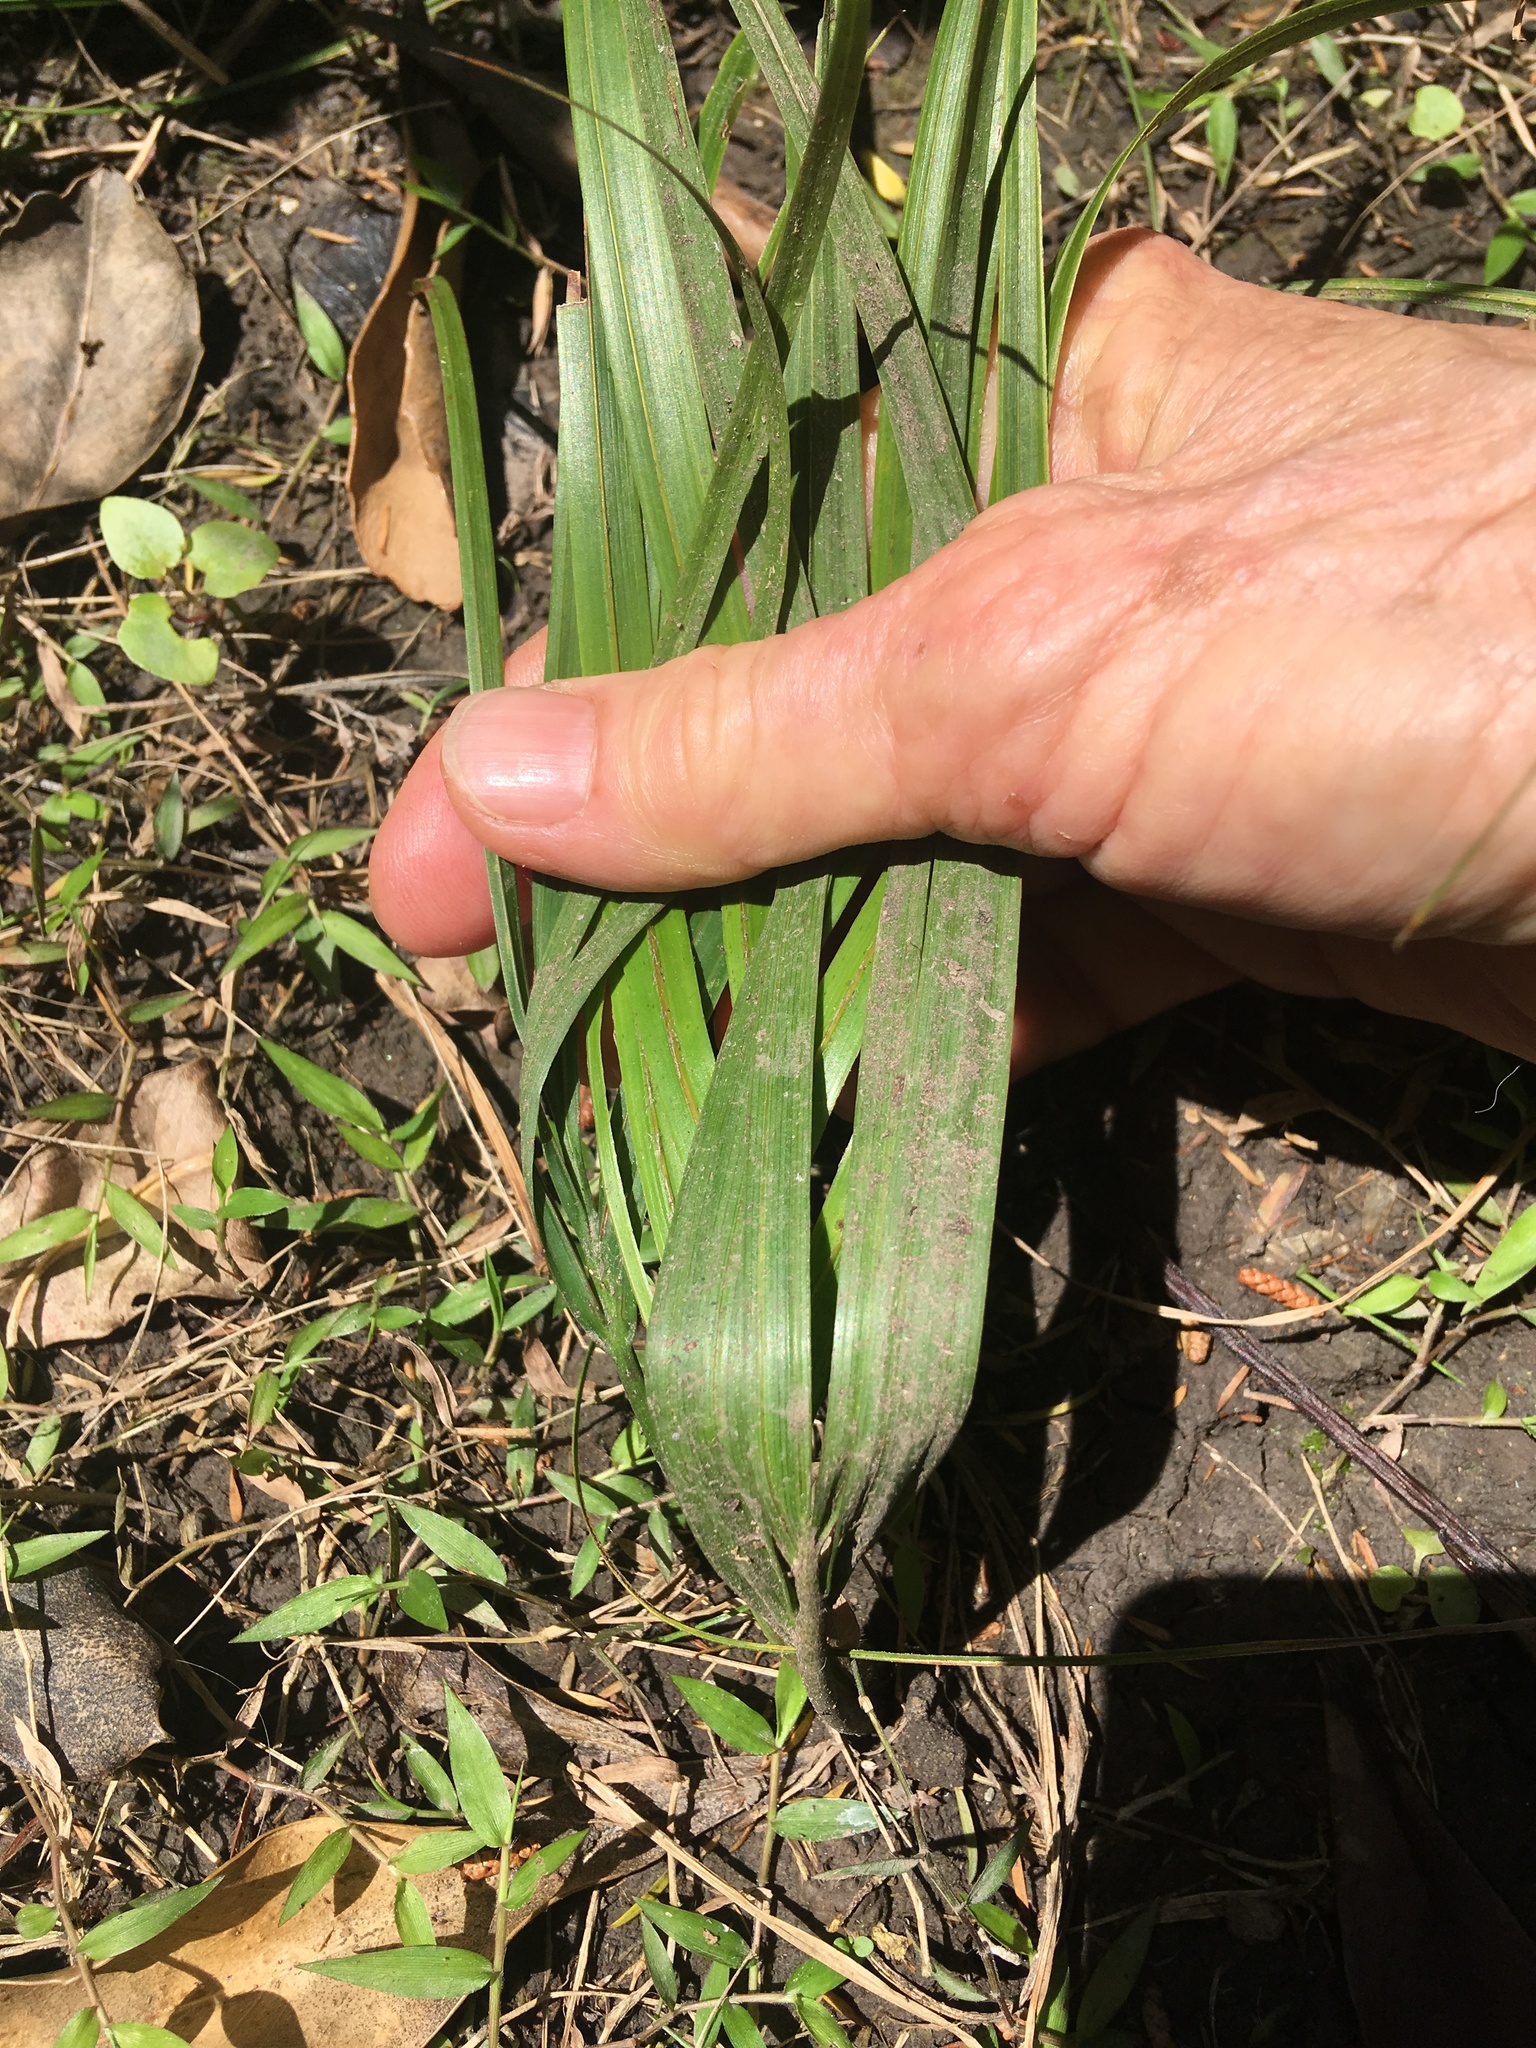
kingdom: Plantae
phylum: Tracheophyta
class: Liliopsida
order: Arecales
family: Arecaceae
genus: Rhopalostylis
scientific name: Rhopalostylis sapida
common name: Feather-duster palm
